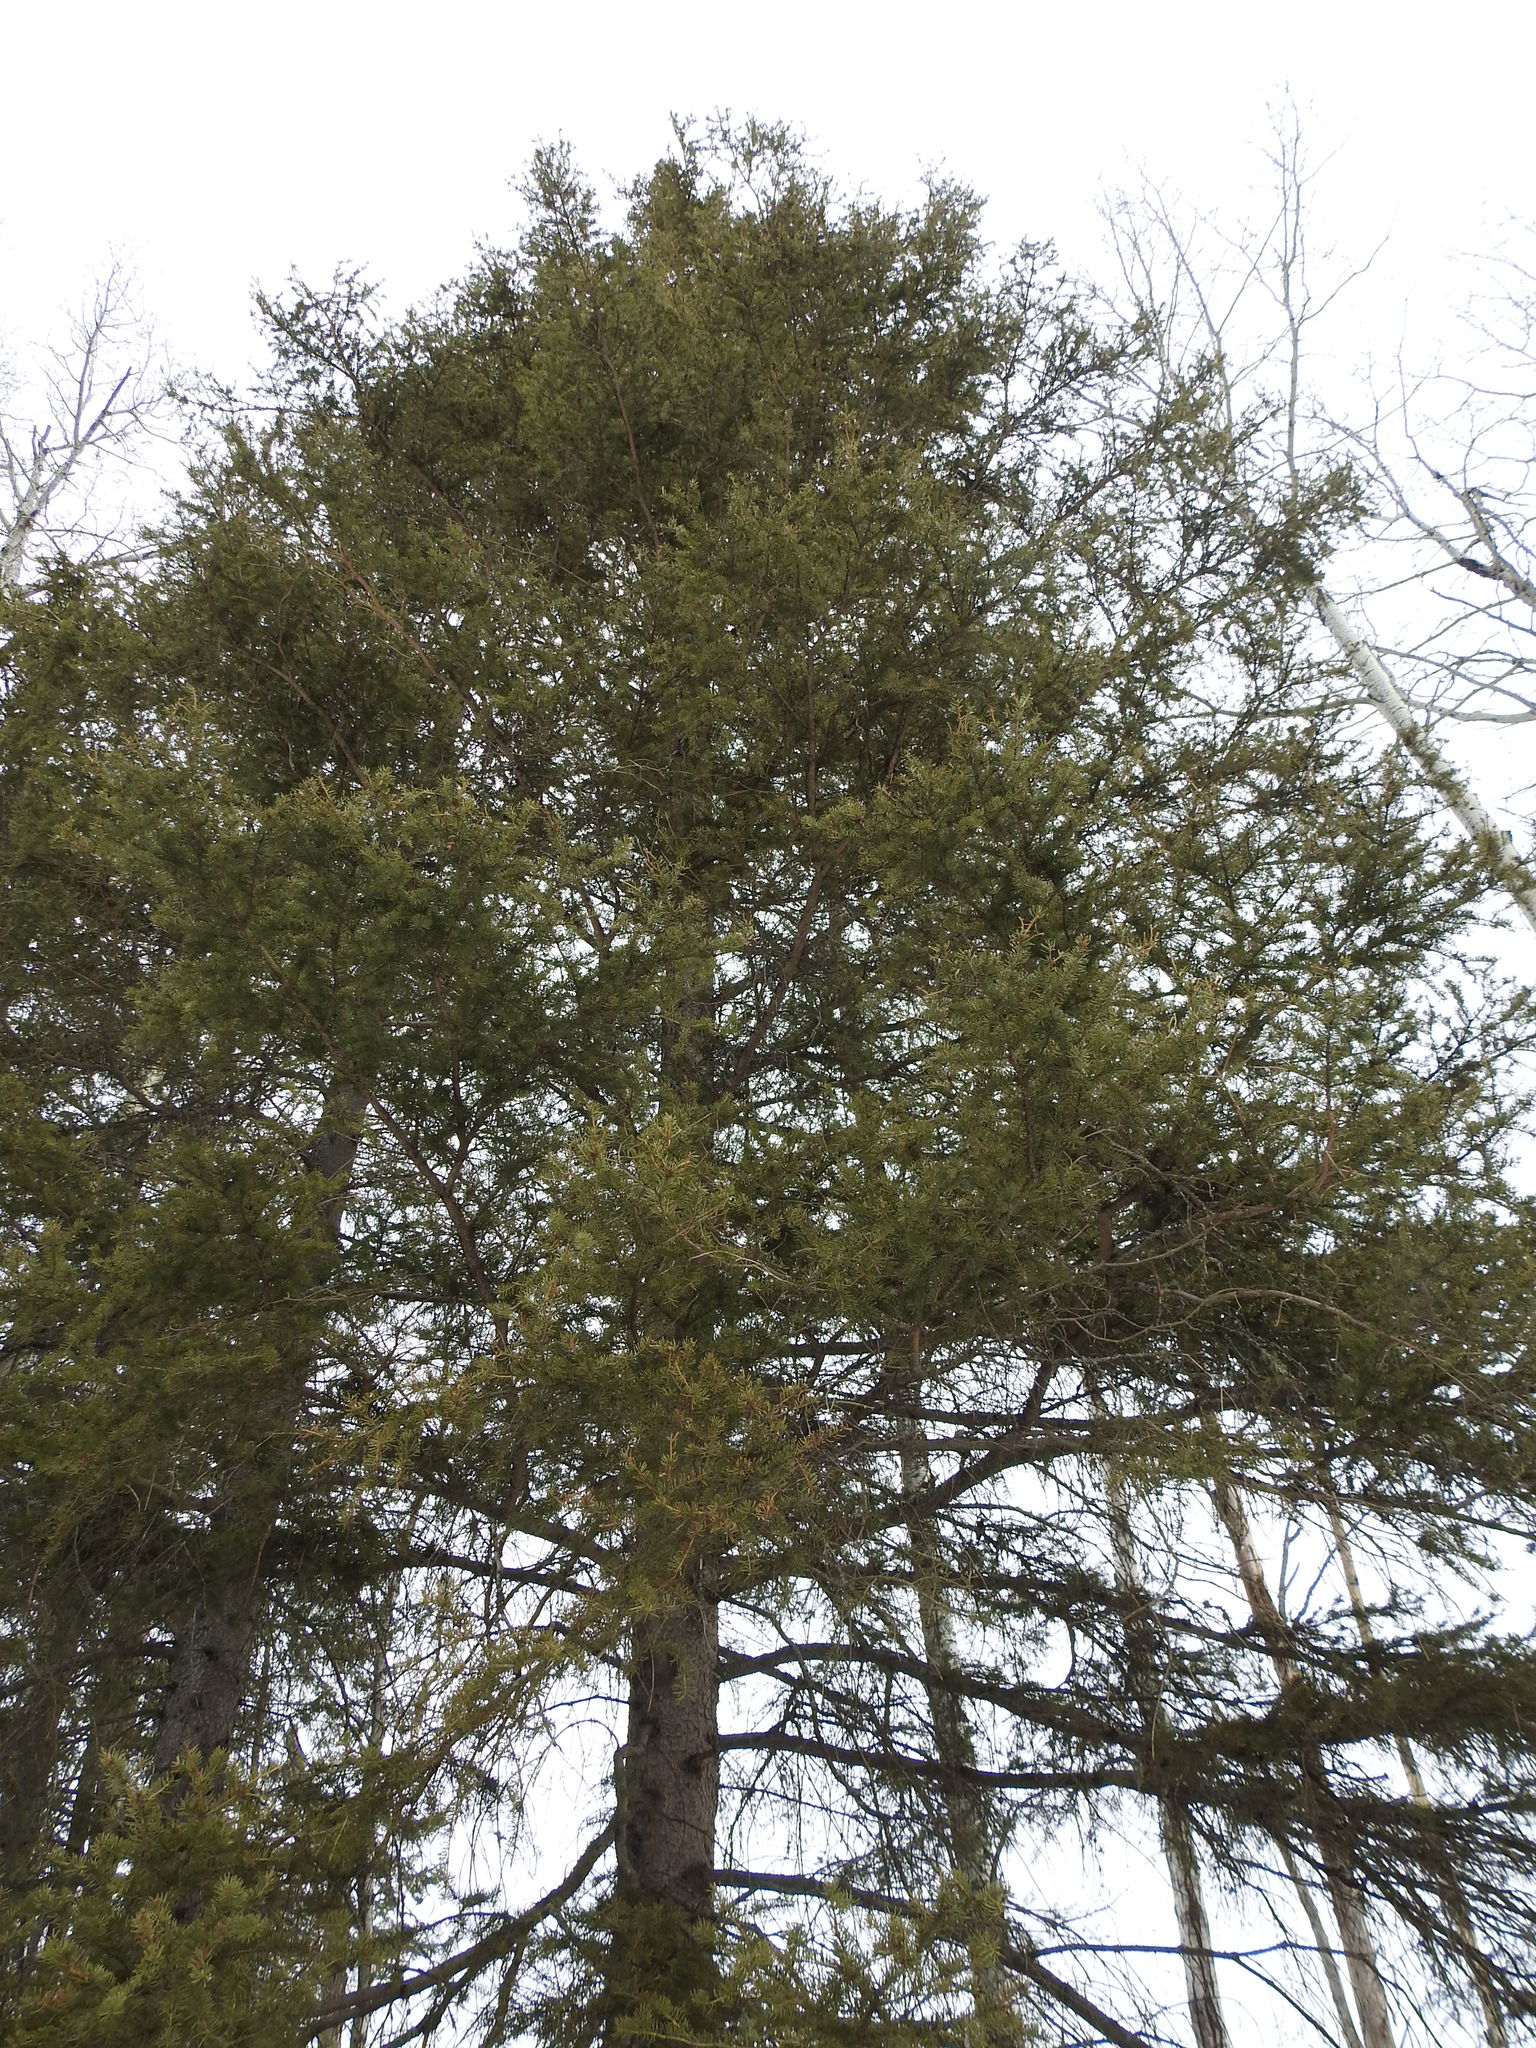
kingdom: Plantae
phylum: Tracheophyta
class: Pinopsida
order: Pinales
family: Pinaceae
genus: Picea
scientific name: Picea glauca
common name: White spruce
